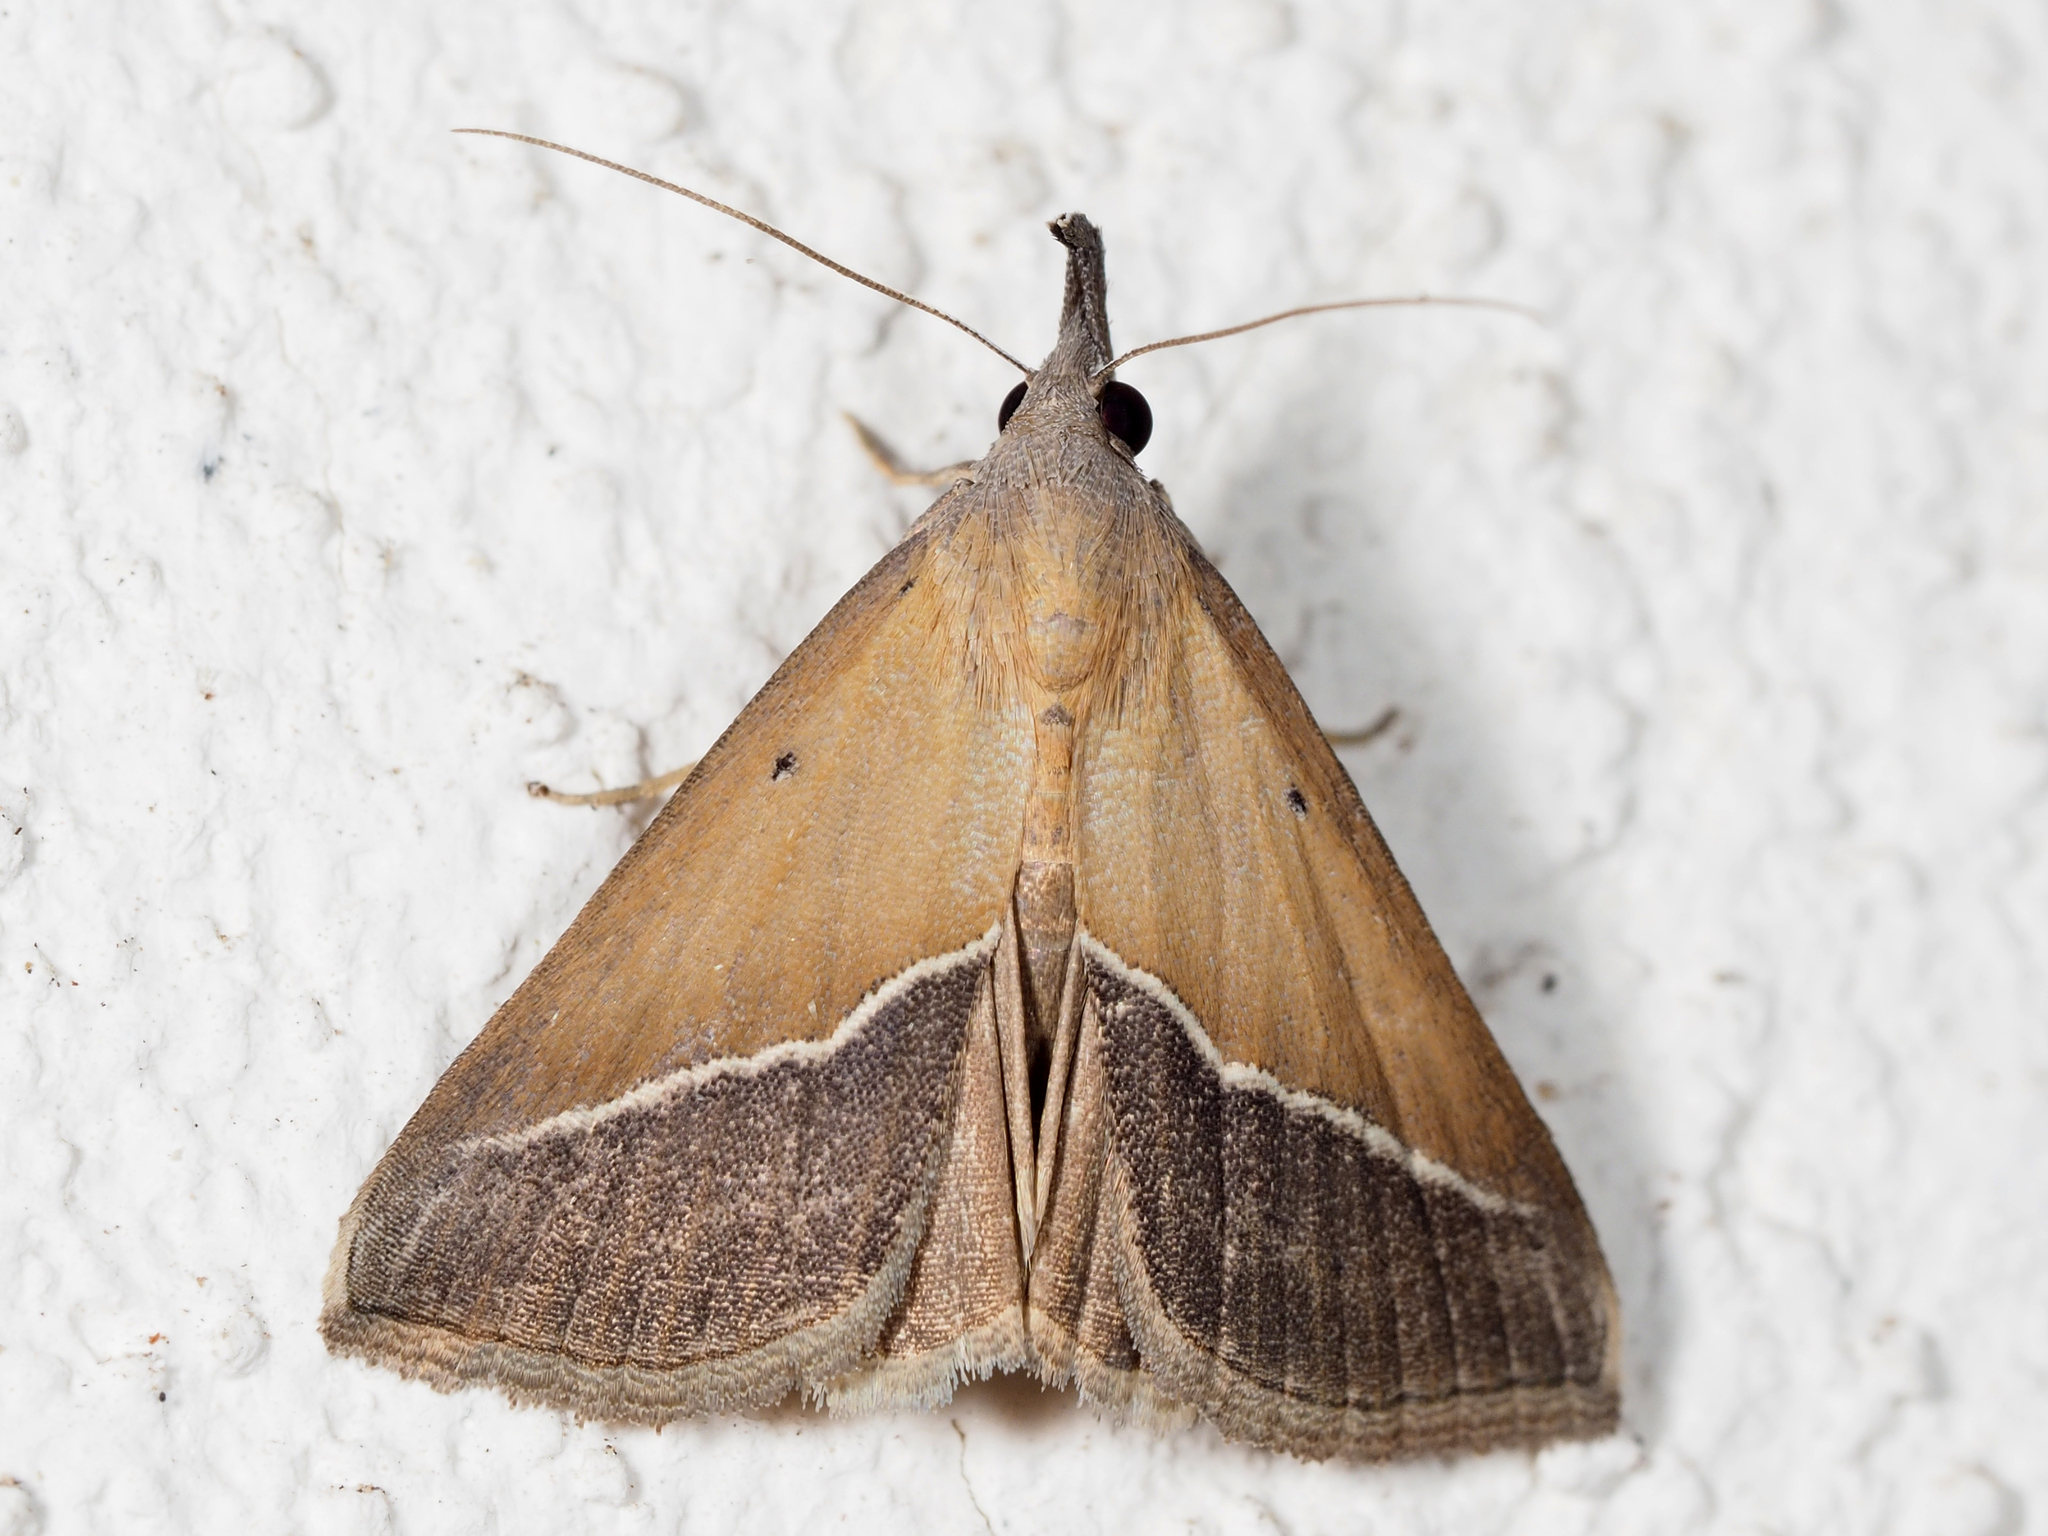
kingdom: Animalia
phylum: Arthropoda
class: Insecta
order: Lepidoptera
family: Erebidae
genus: Hypena
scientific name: Hypena lividalis
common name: Chevron snout
